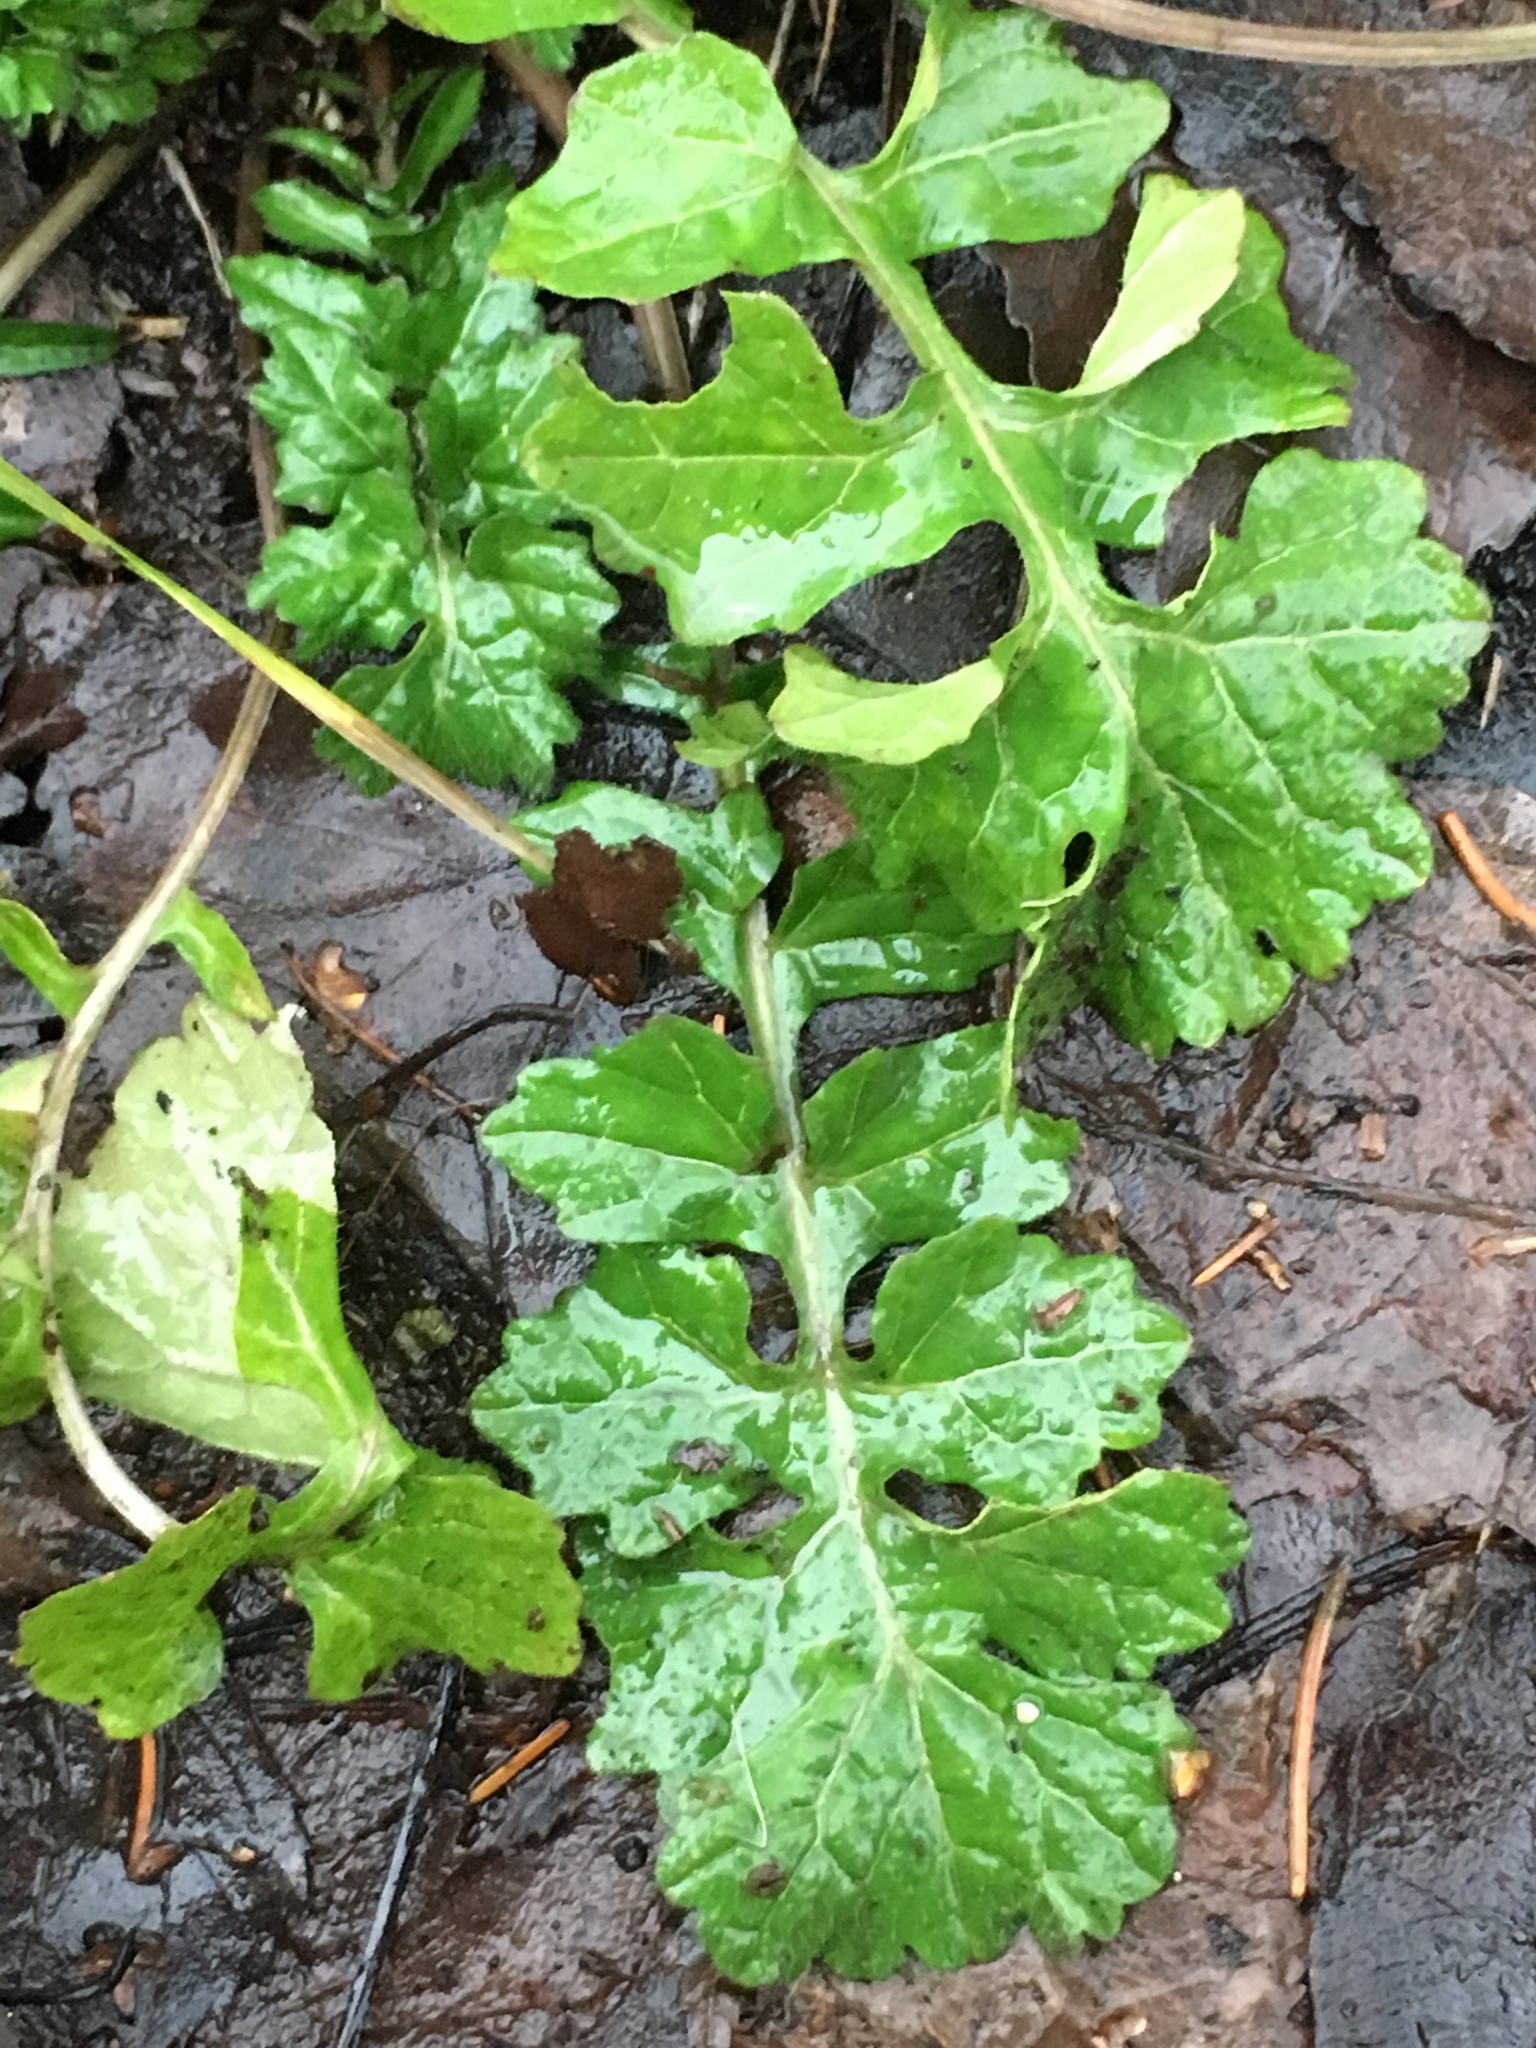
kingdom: Plantae
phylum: Tracheophyta
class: Magnoliopsida
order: Brassicales
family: Brassicaceae
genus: Sisymbrium
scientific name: Sisymbrium officinale
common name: Hedge mustard
